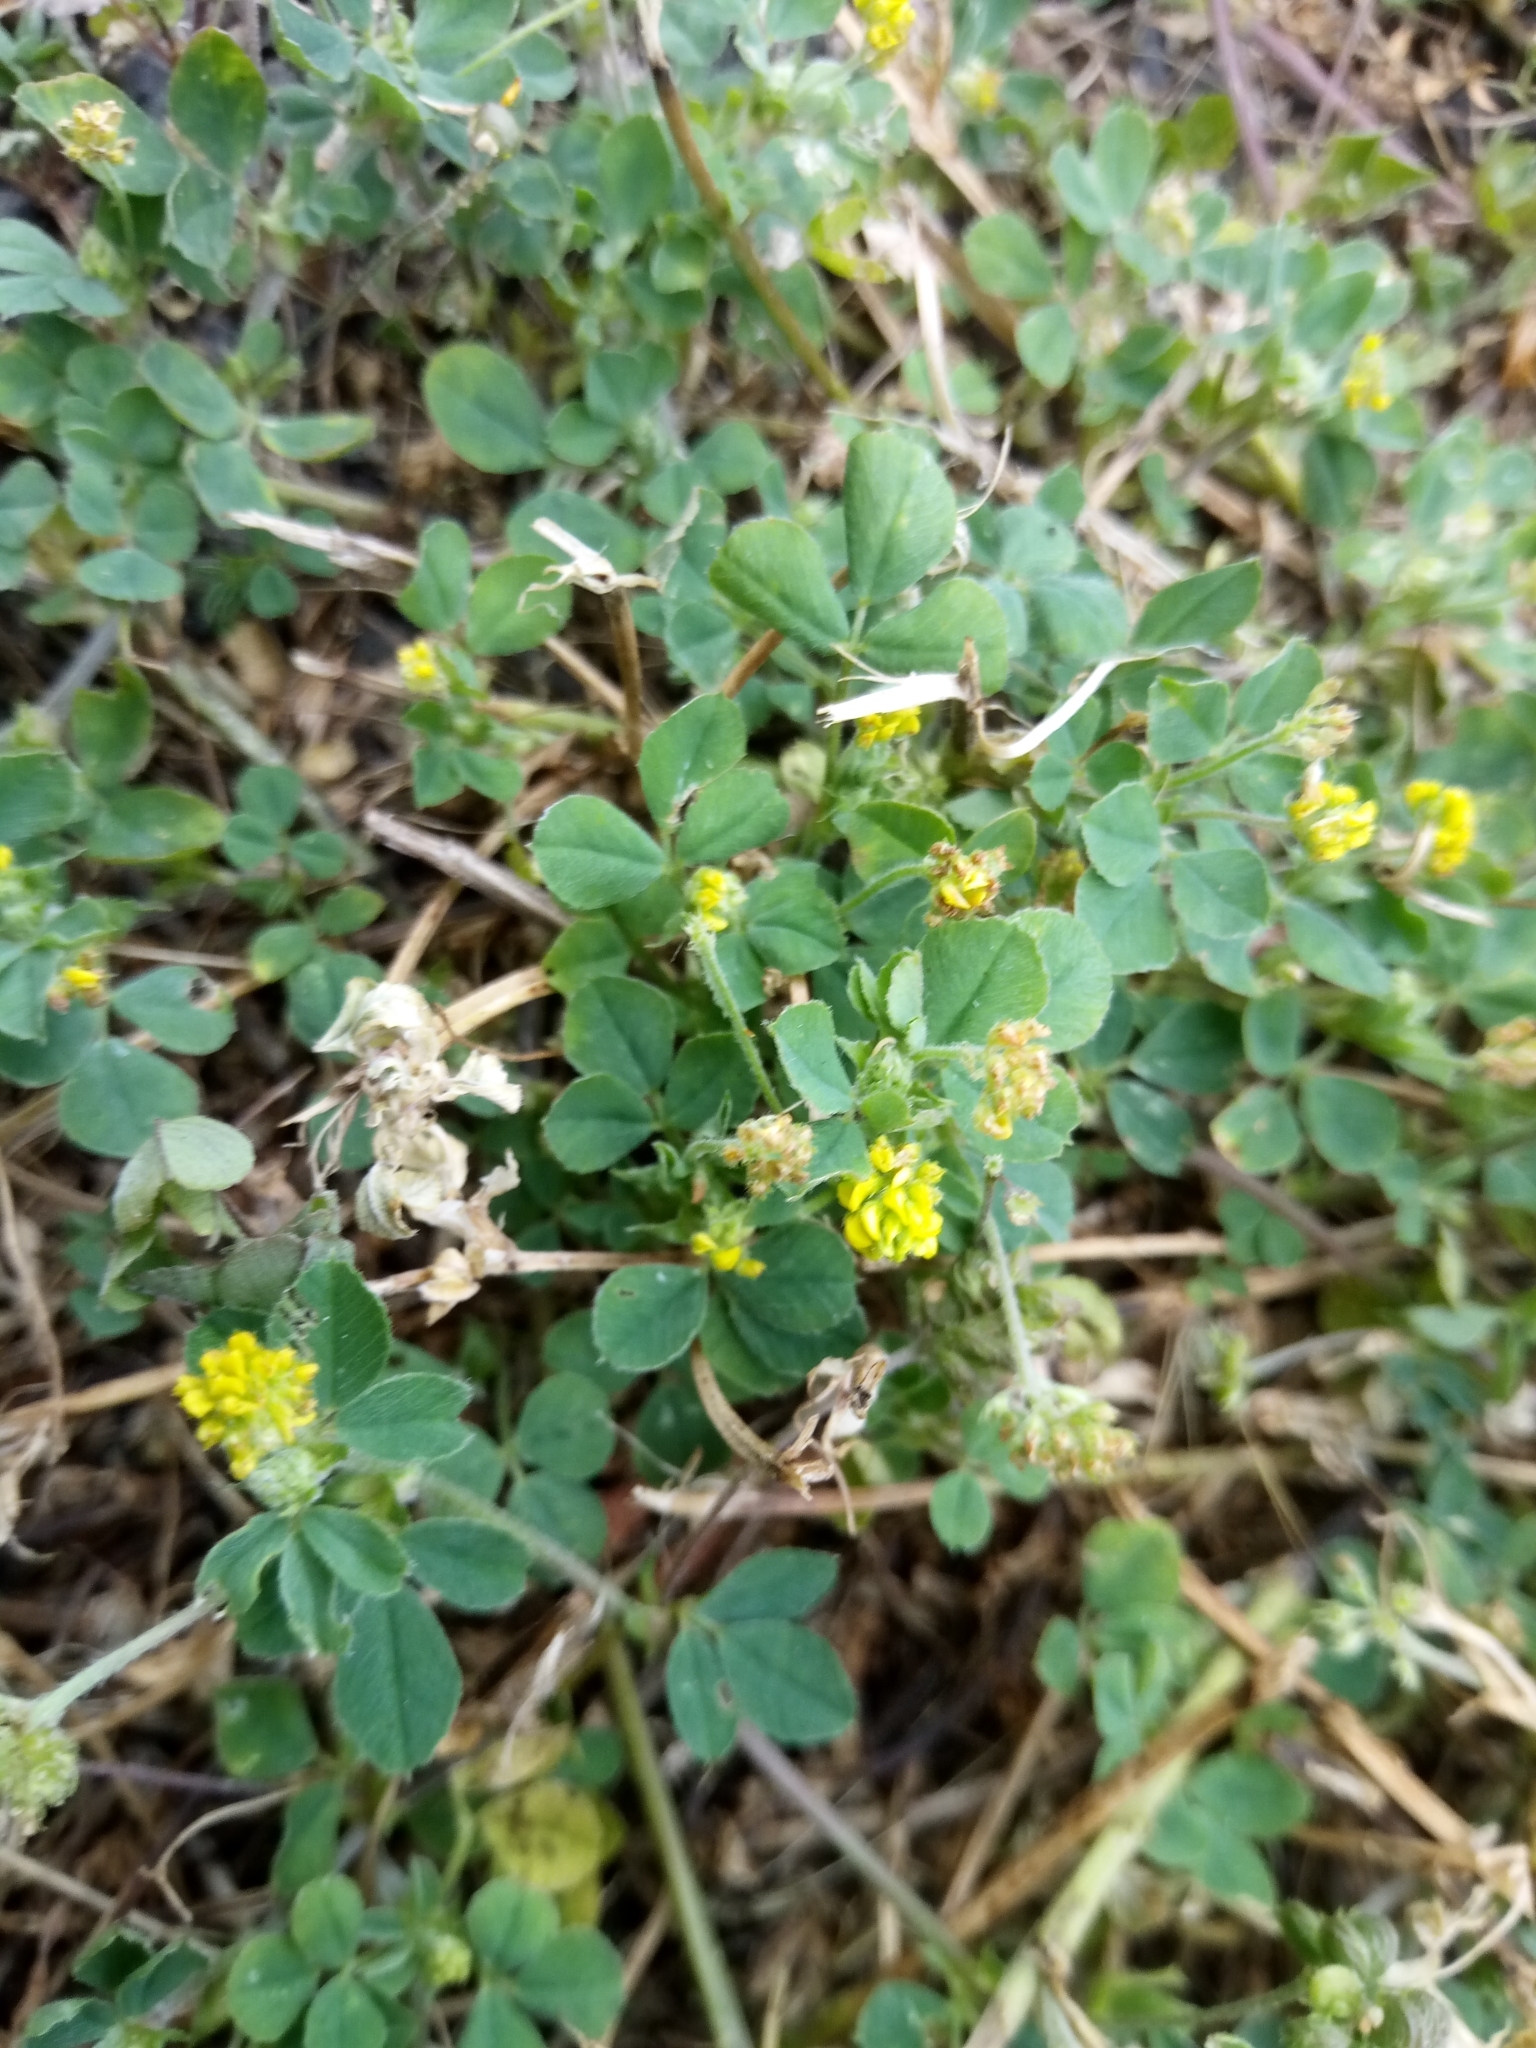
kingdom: Plantae
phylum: Tracheophyta
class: Magnoliopsida
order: Fabales
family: Fabaceae
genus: Medicago
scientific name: Medicago lupulina
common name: Black medick
